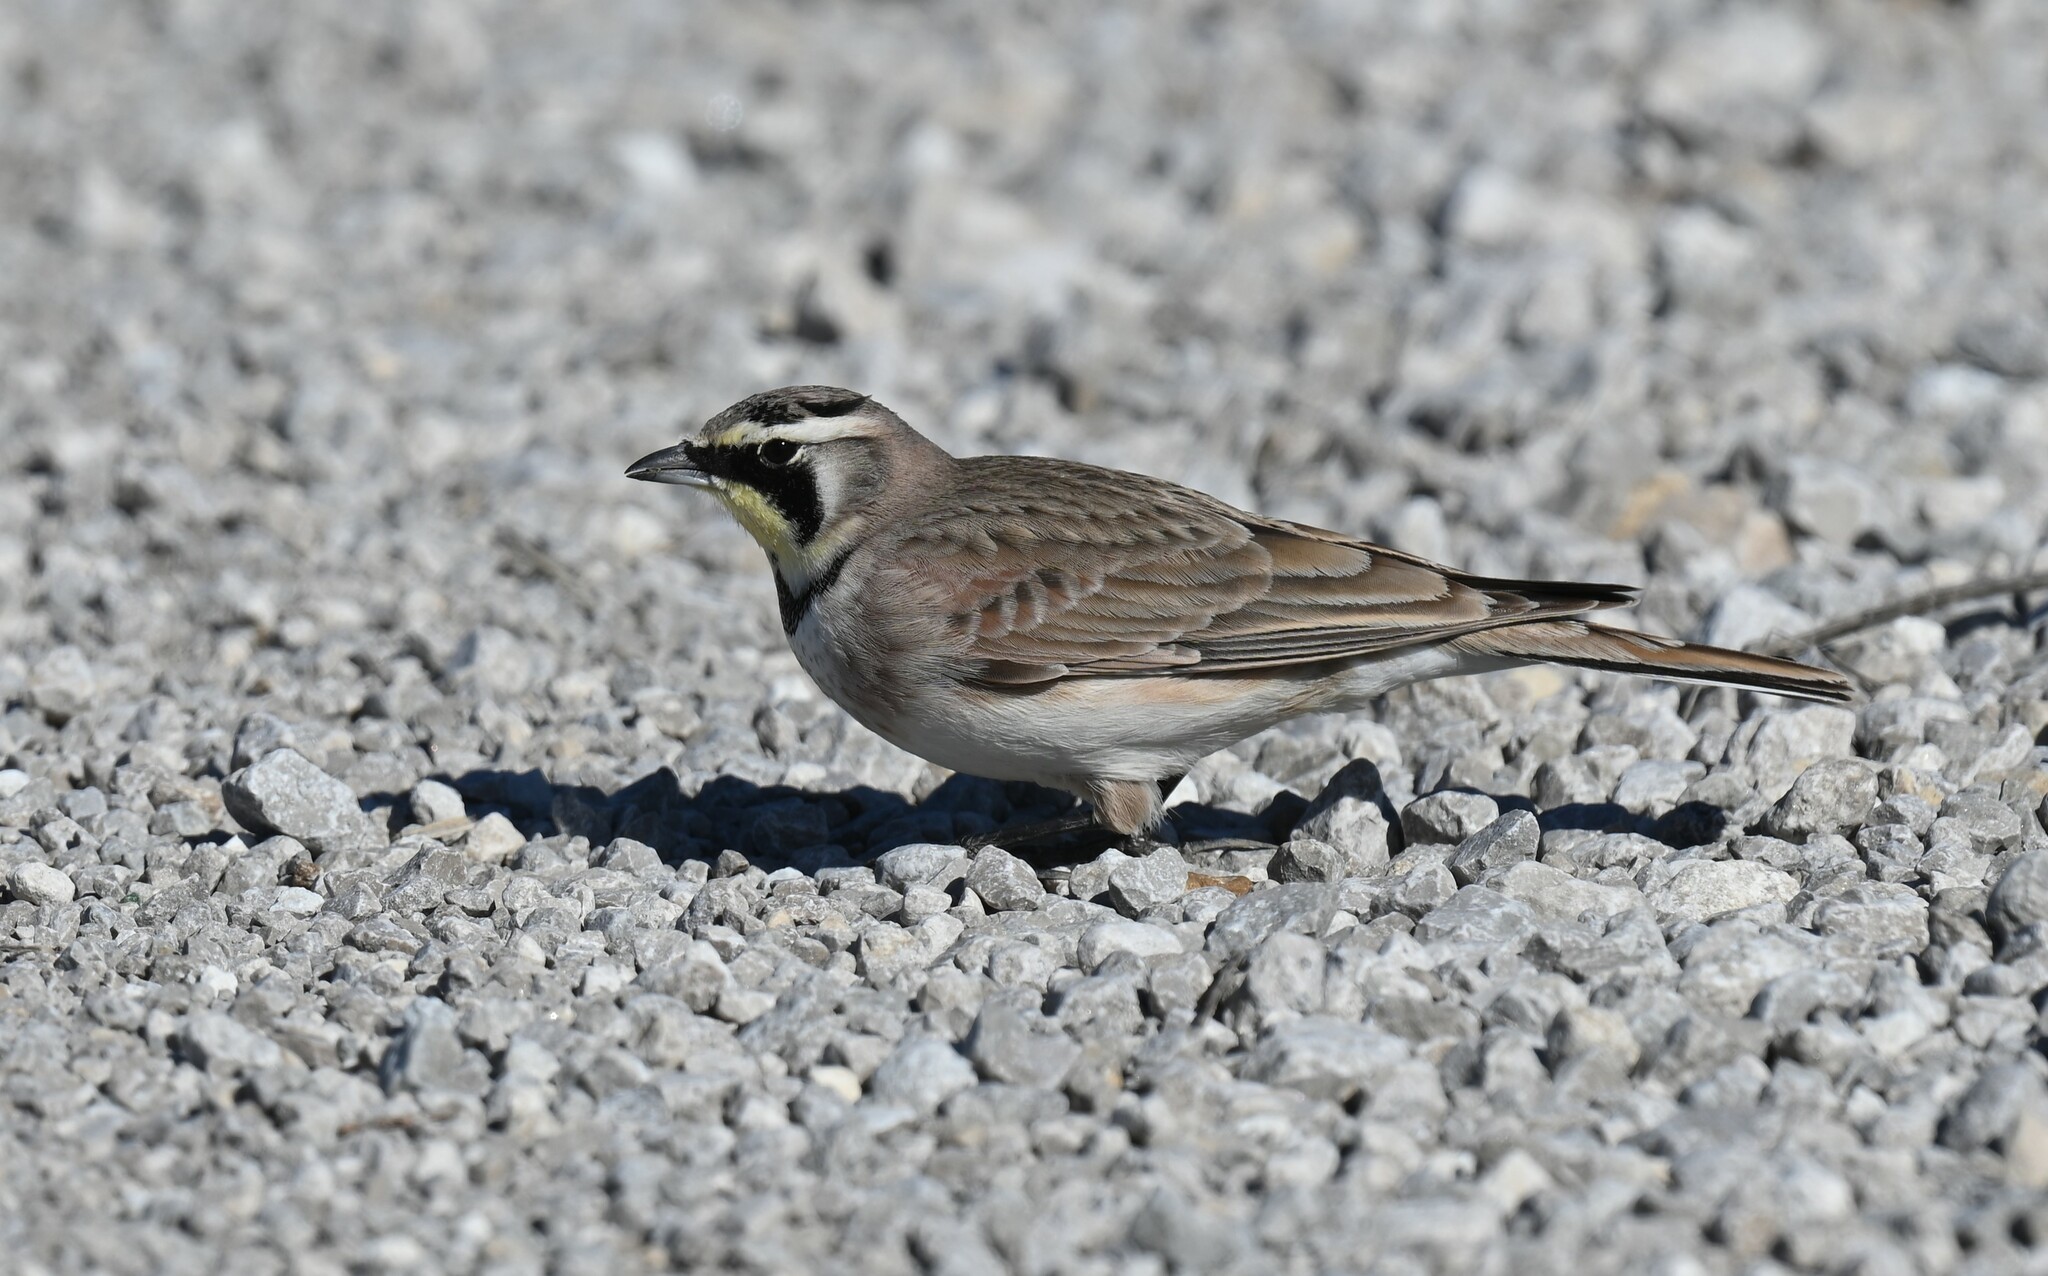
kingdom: Animalia
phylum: Chordata
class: Aves
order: Passeriformes
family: Alaudidae
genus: Eremophila
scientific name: Eremophila alpestris
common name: Horned lark
